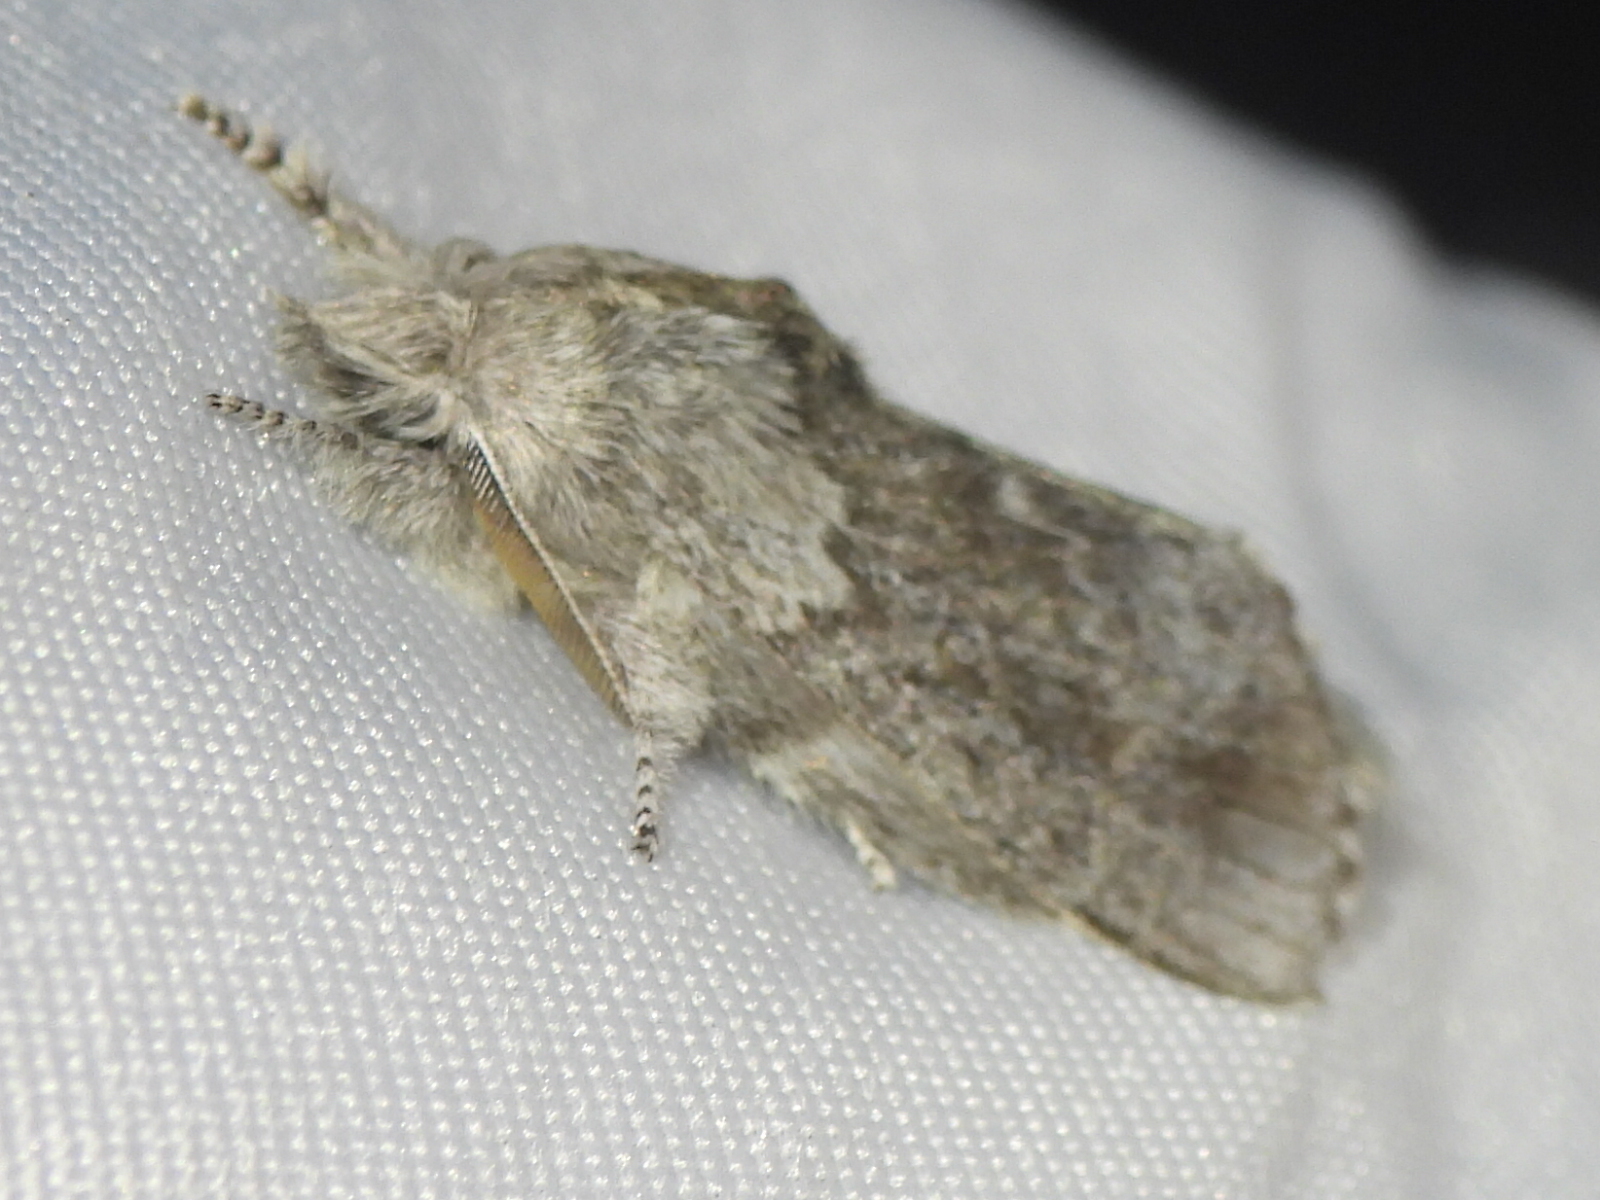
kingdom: Animalia
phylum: Arthropoda
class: Insecta
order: Lepidoptera
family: Lasiocampidae
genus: Heteropacha
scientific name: Heteropacha rileyana
